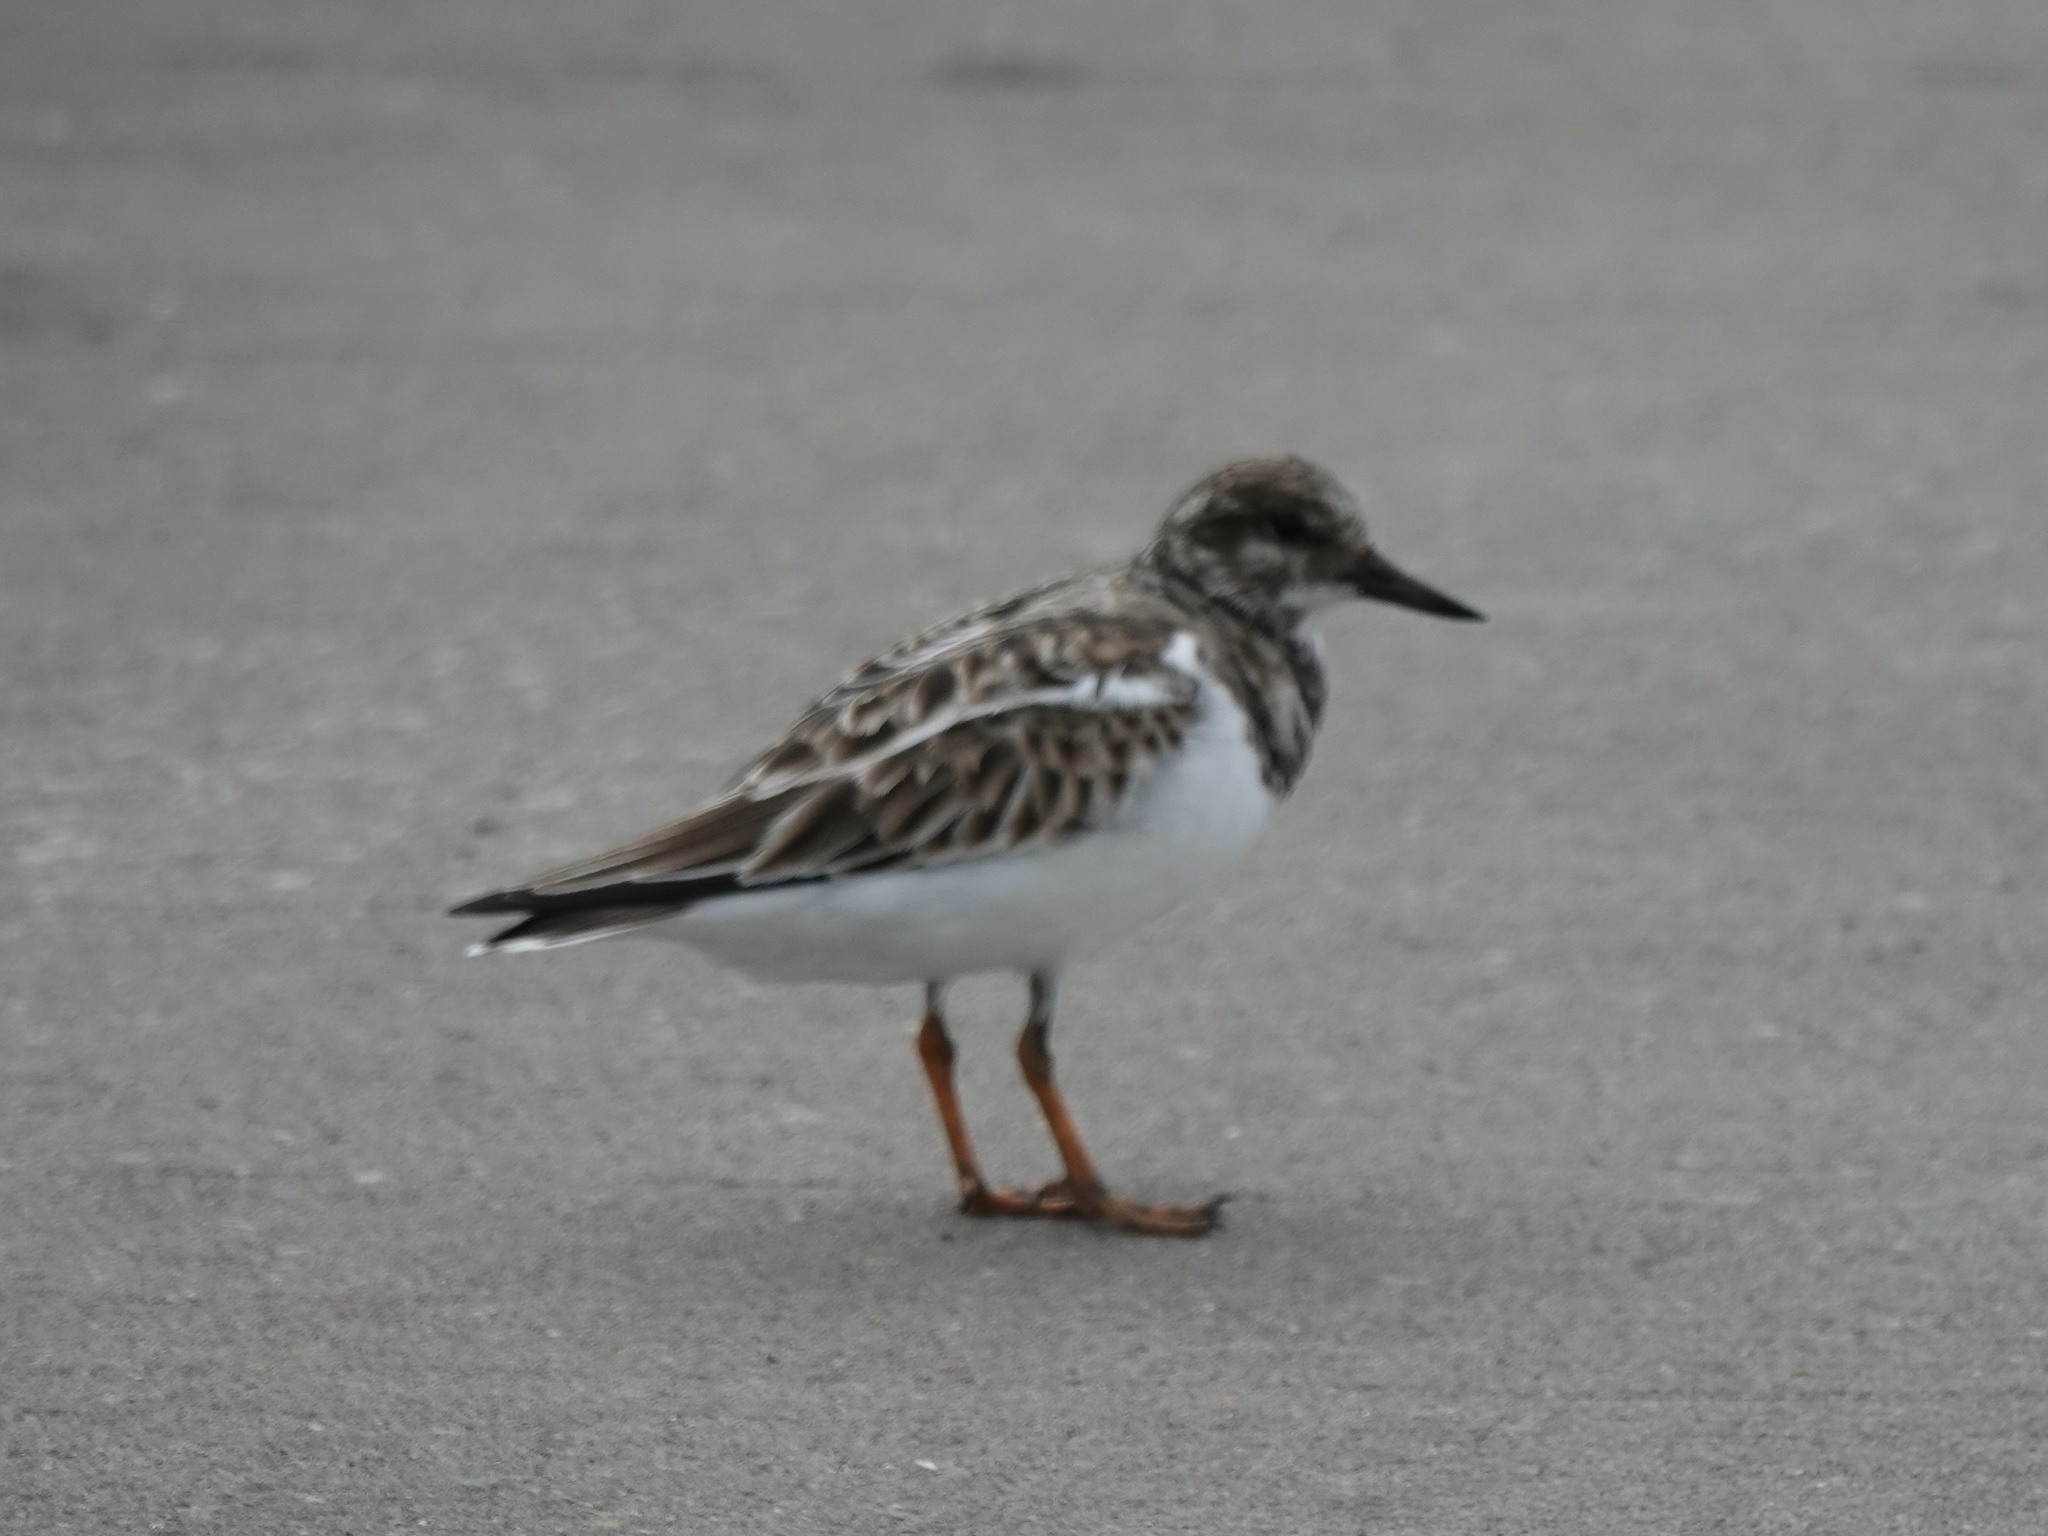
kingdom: Animalia
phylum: Chordata
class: Aves
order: Charadriiformes
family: Scolopacidae
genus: Arenaria
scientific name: Arenaria interpres
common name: Ruddy turnstone
